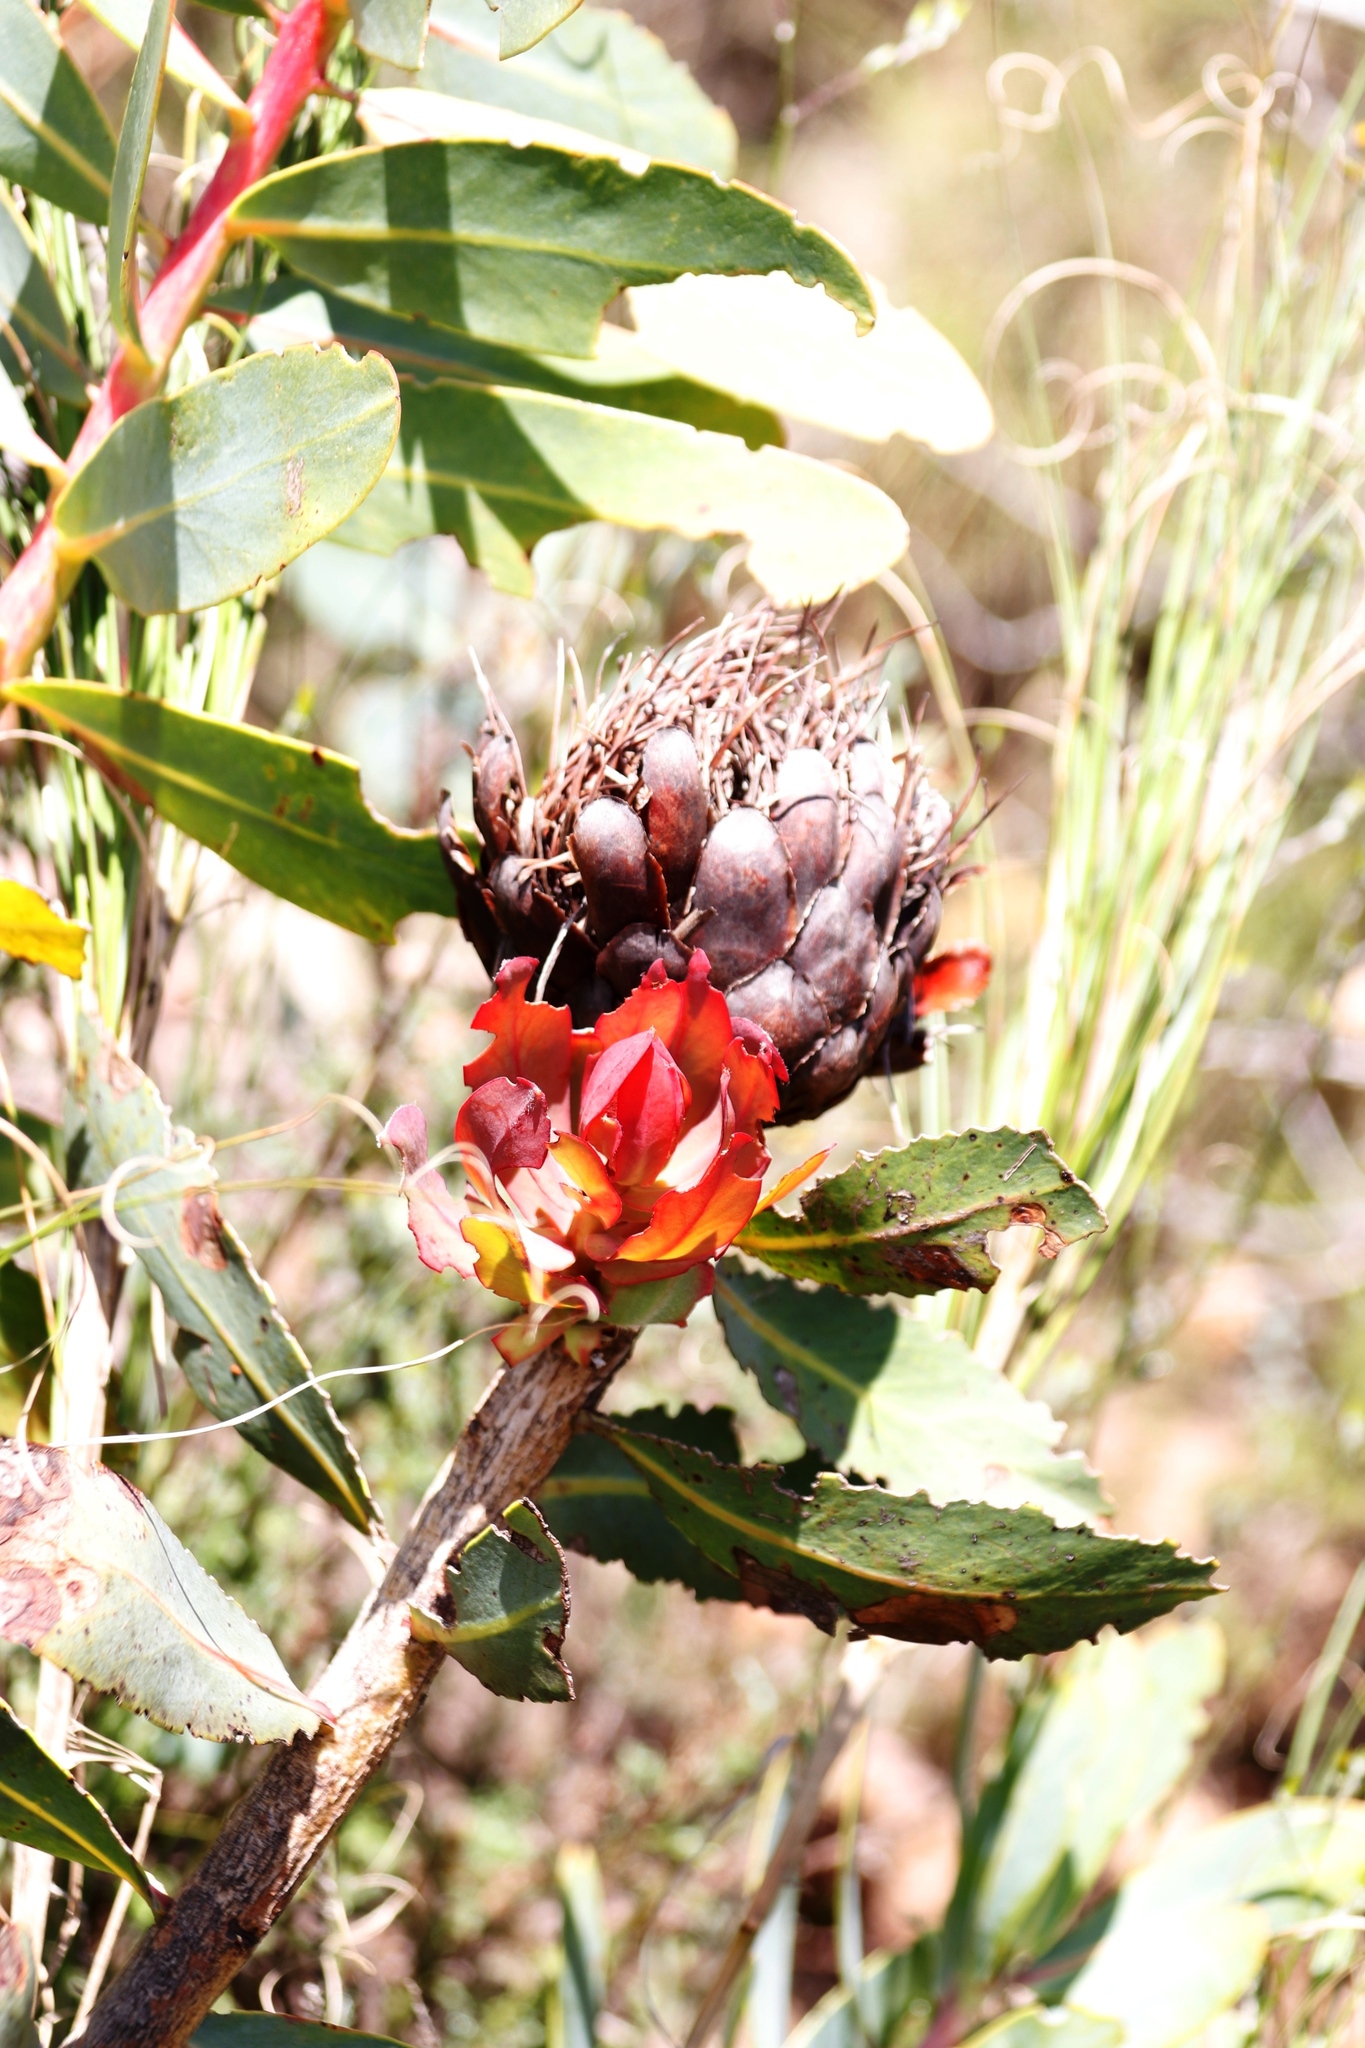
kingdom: Plantae
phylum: Tracheophyta
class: Magnoliopsida
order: Proteales
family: Proteaceae
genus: Protea
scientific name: Protea nitida
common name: Tree protea
